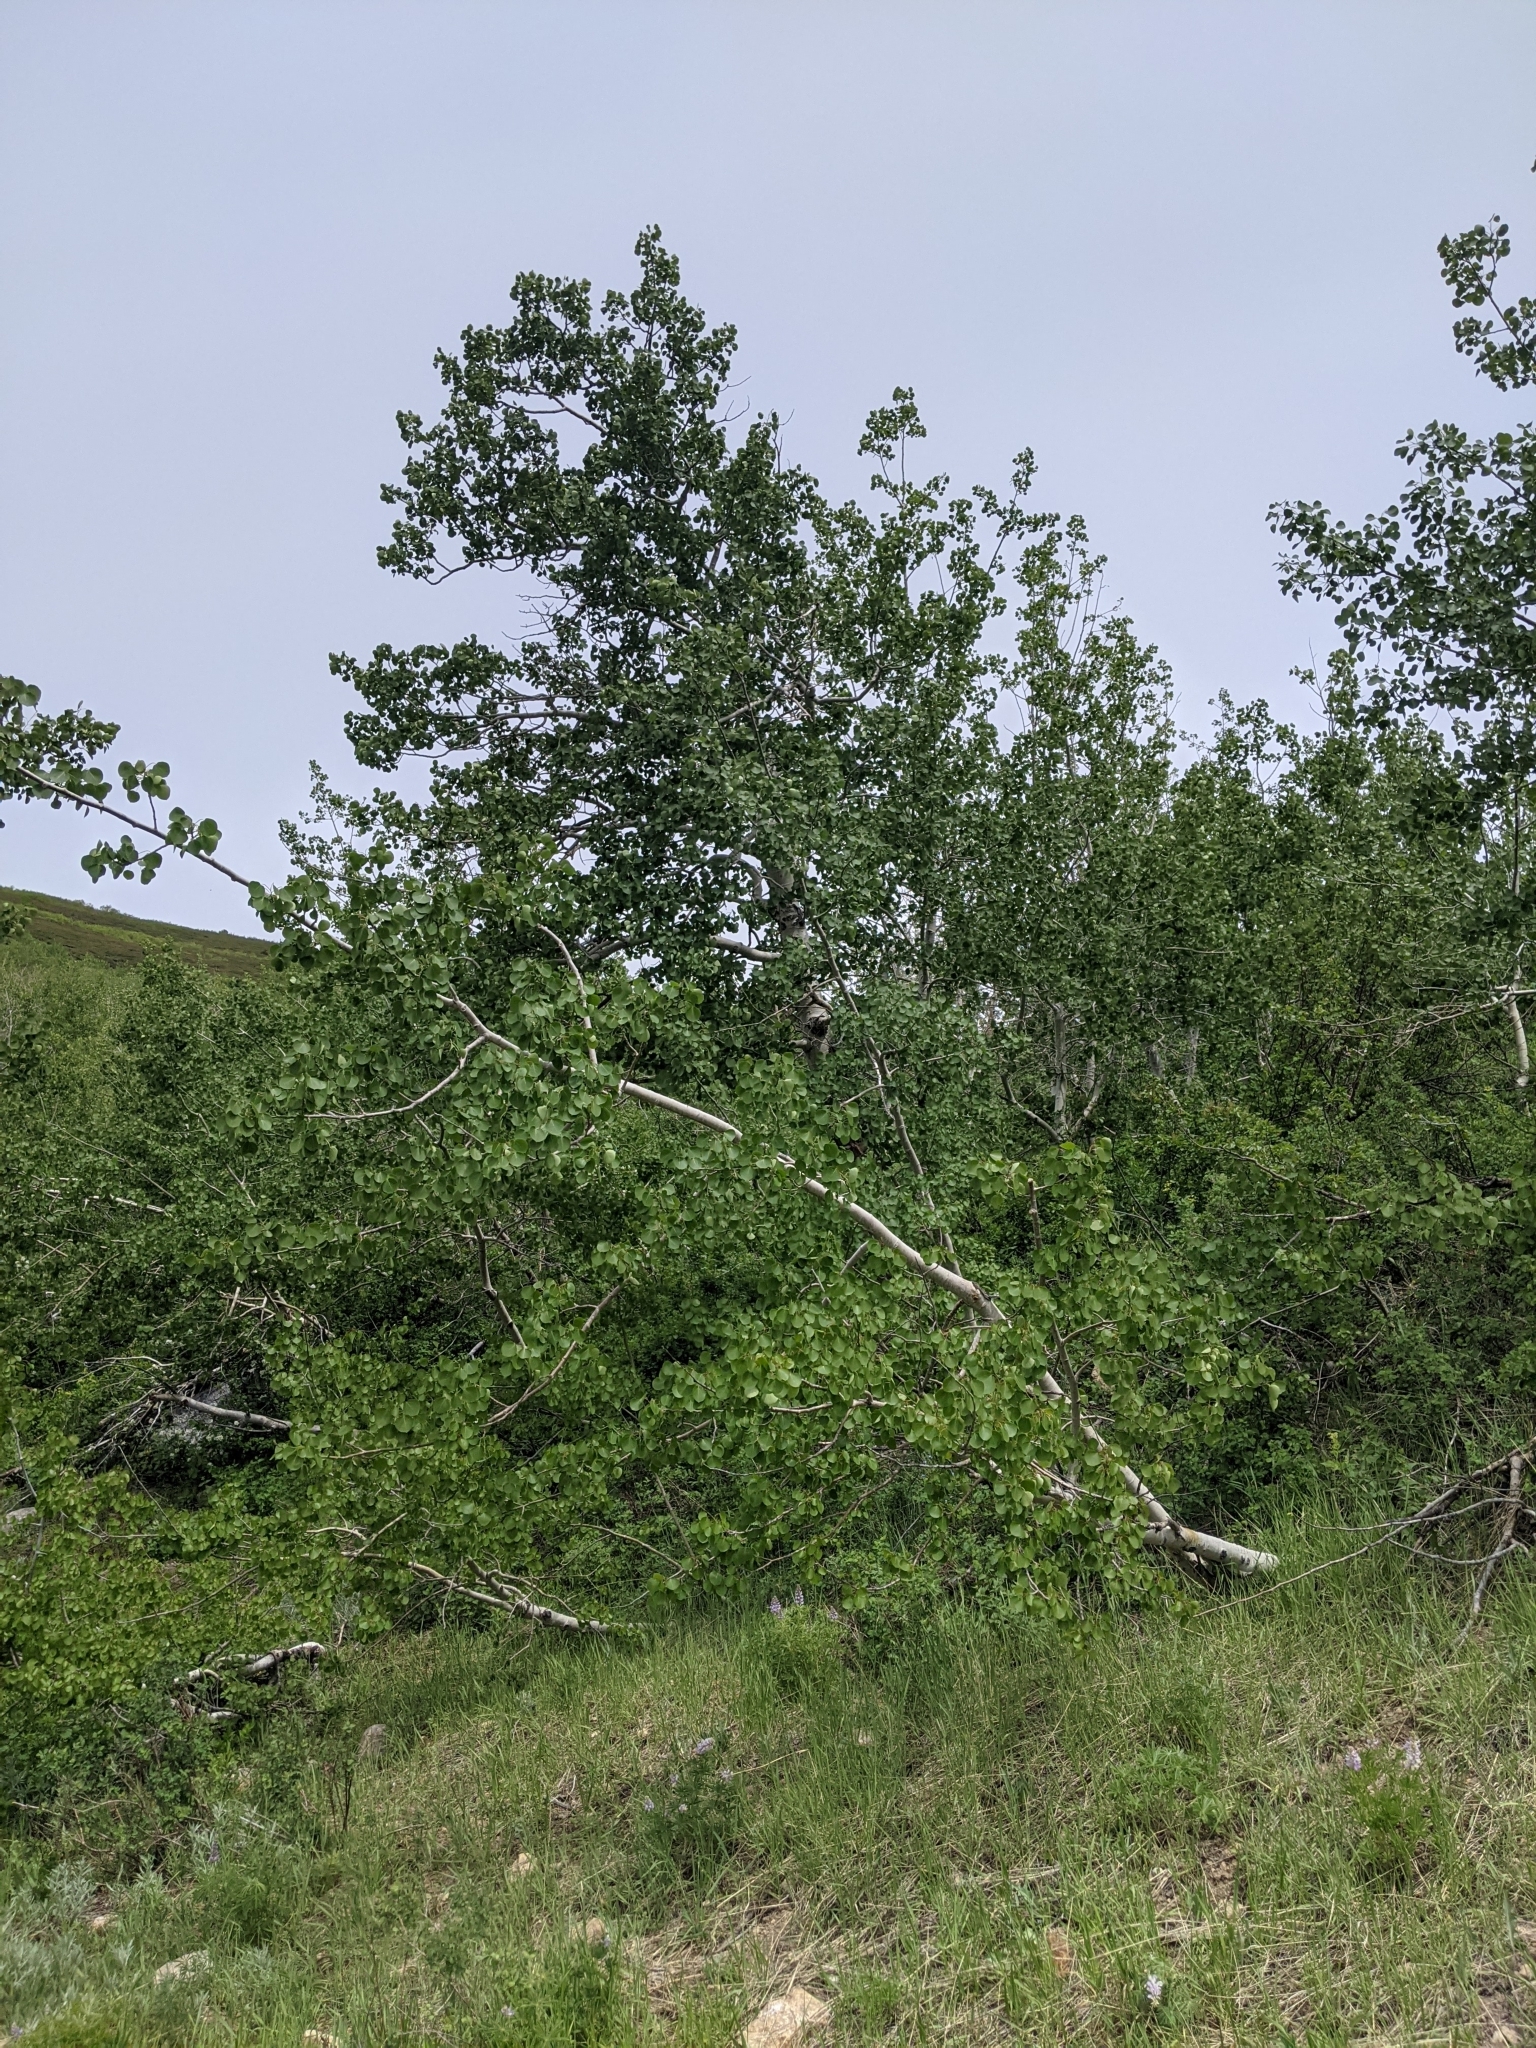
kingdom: Plantae
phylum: Tracheophyta
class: Magnoliopsida
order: Malpighiales
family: Salicaceae
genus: Populus
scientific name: Populus tremuloides
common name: Quaking aspen
